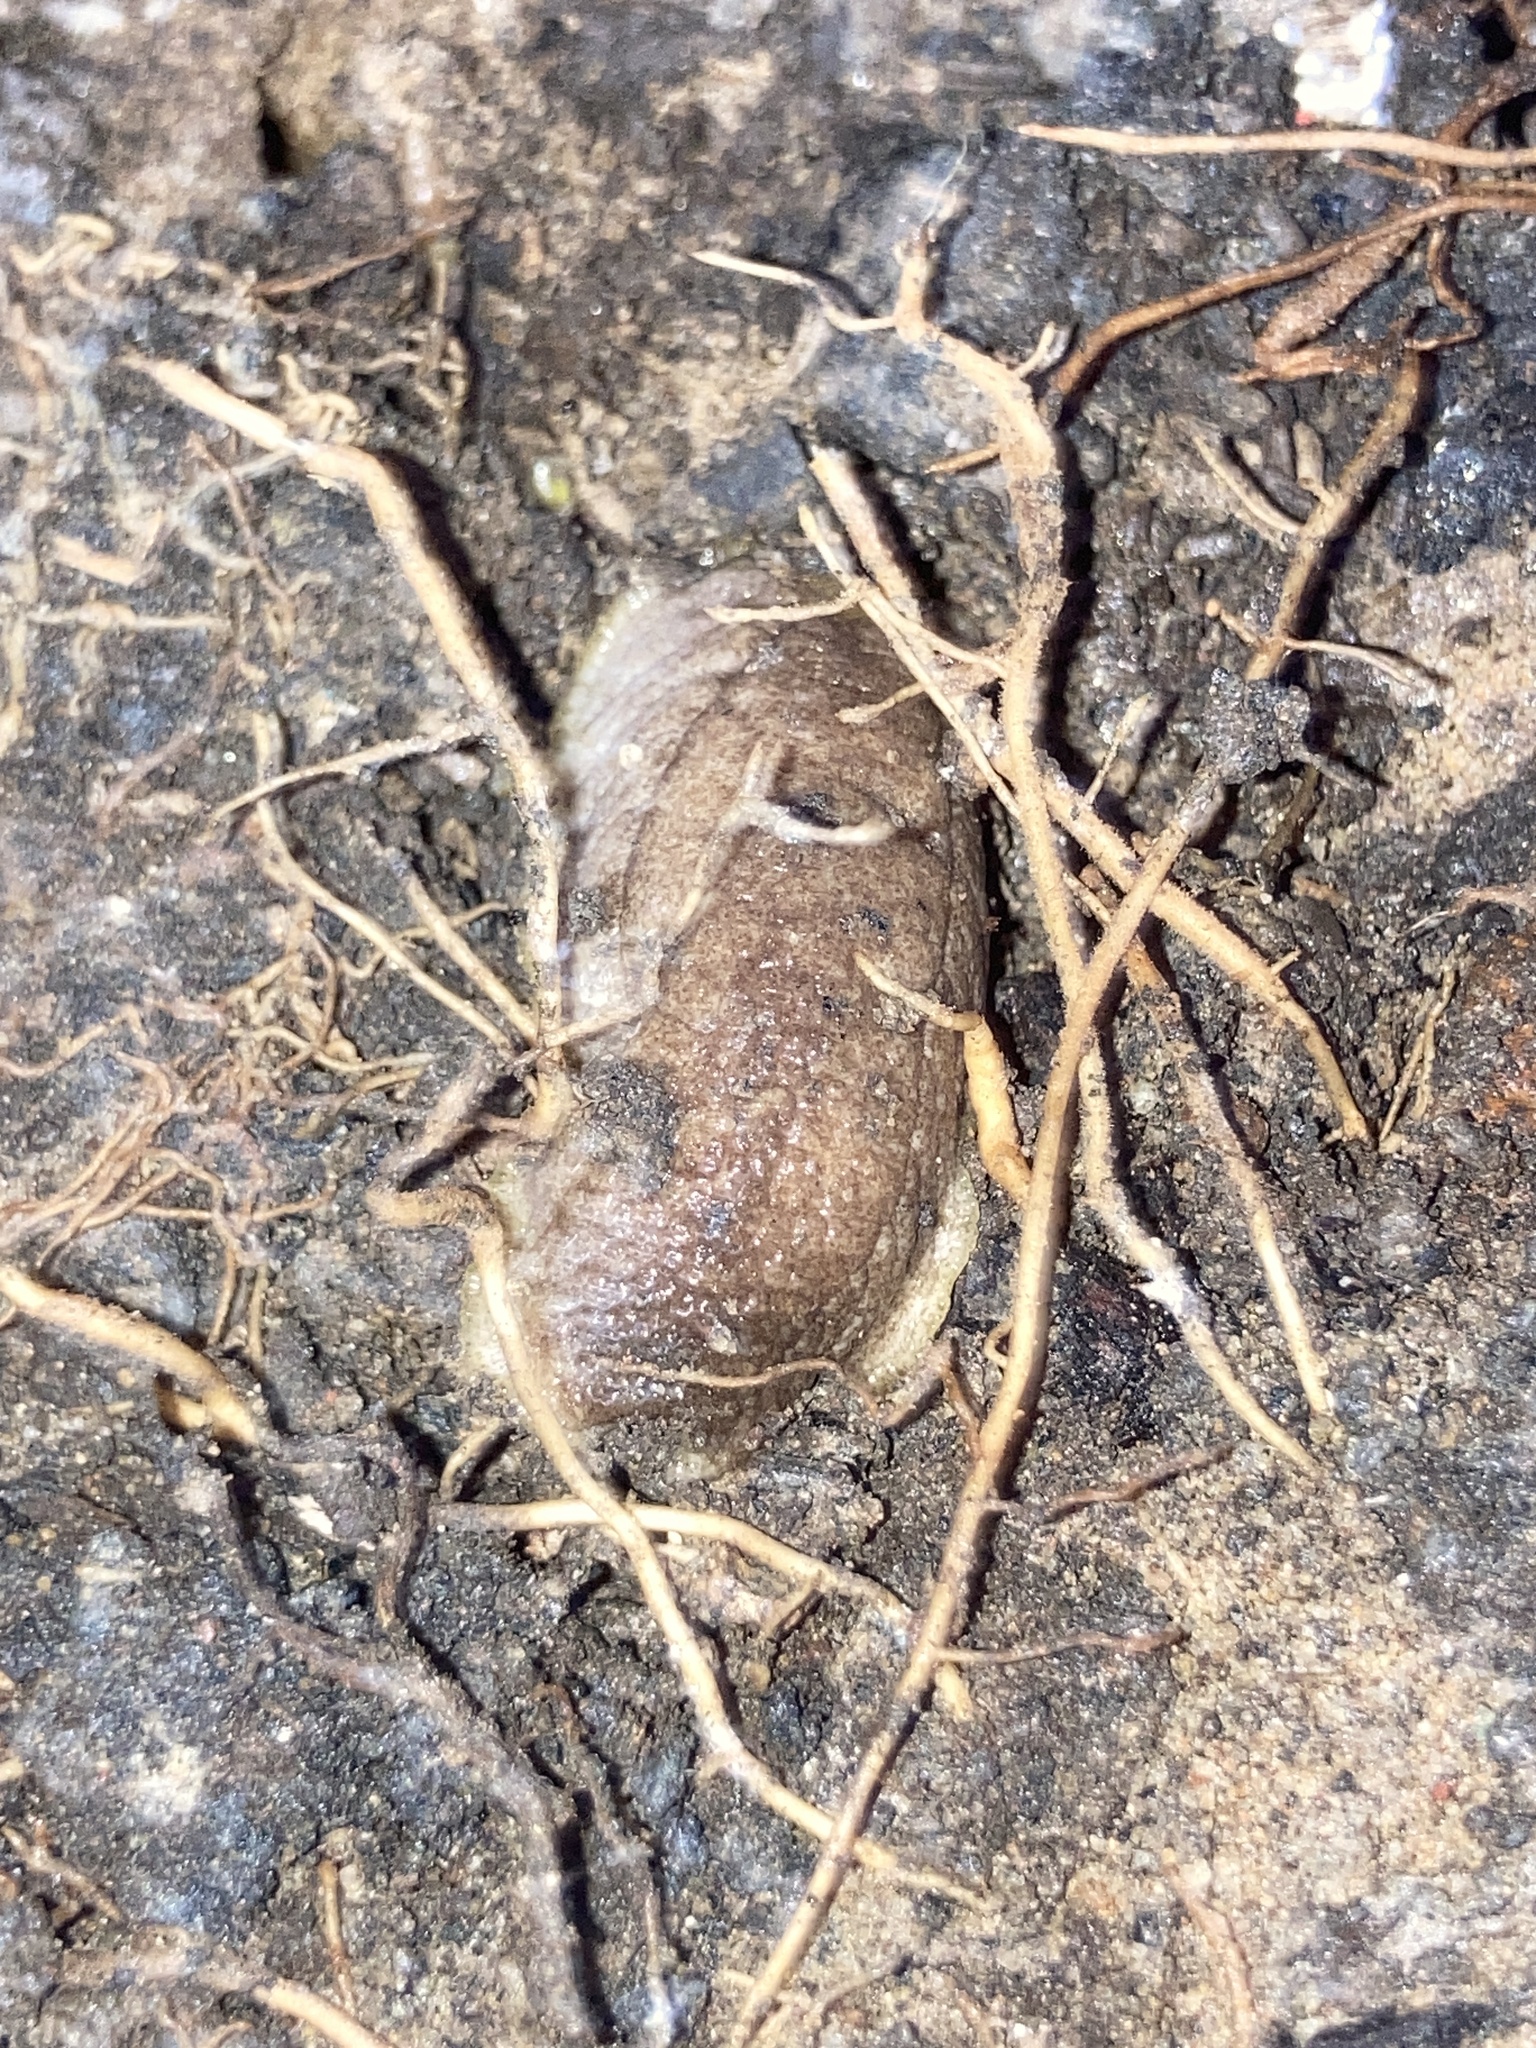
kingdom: Animalia
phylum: Mollusca
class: Gastropoda
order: Stylommatophora
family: Testacellidae
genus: Testacella
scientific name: Testacella haliotidea
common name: Shelled slug
